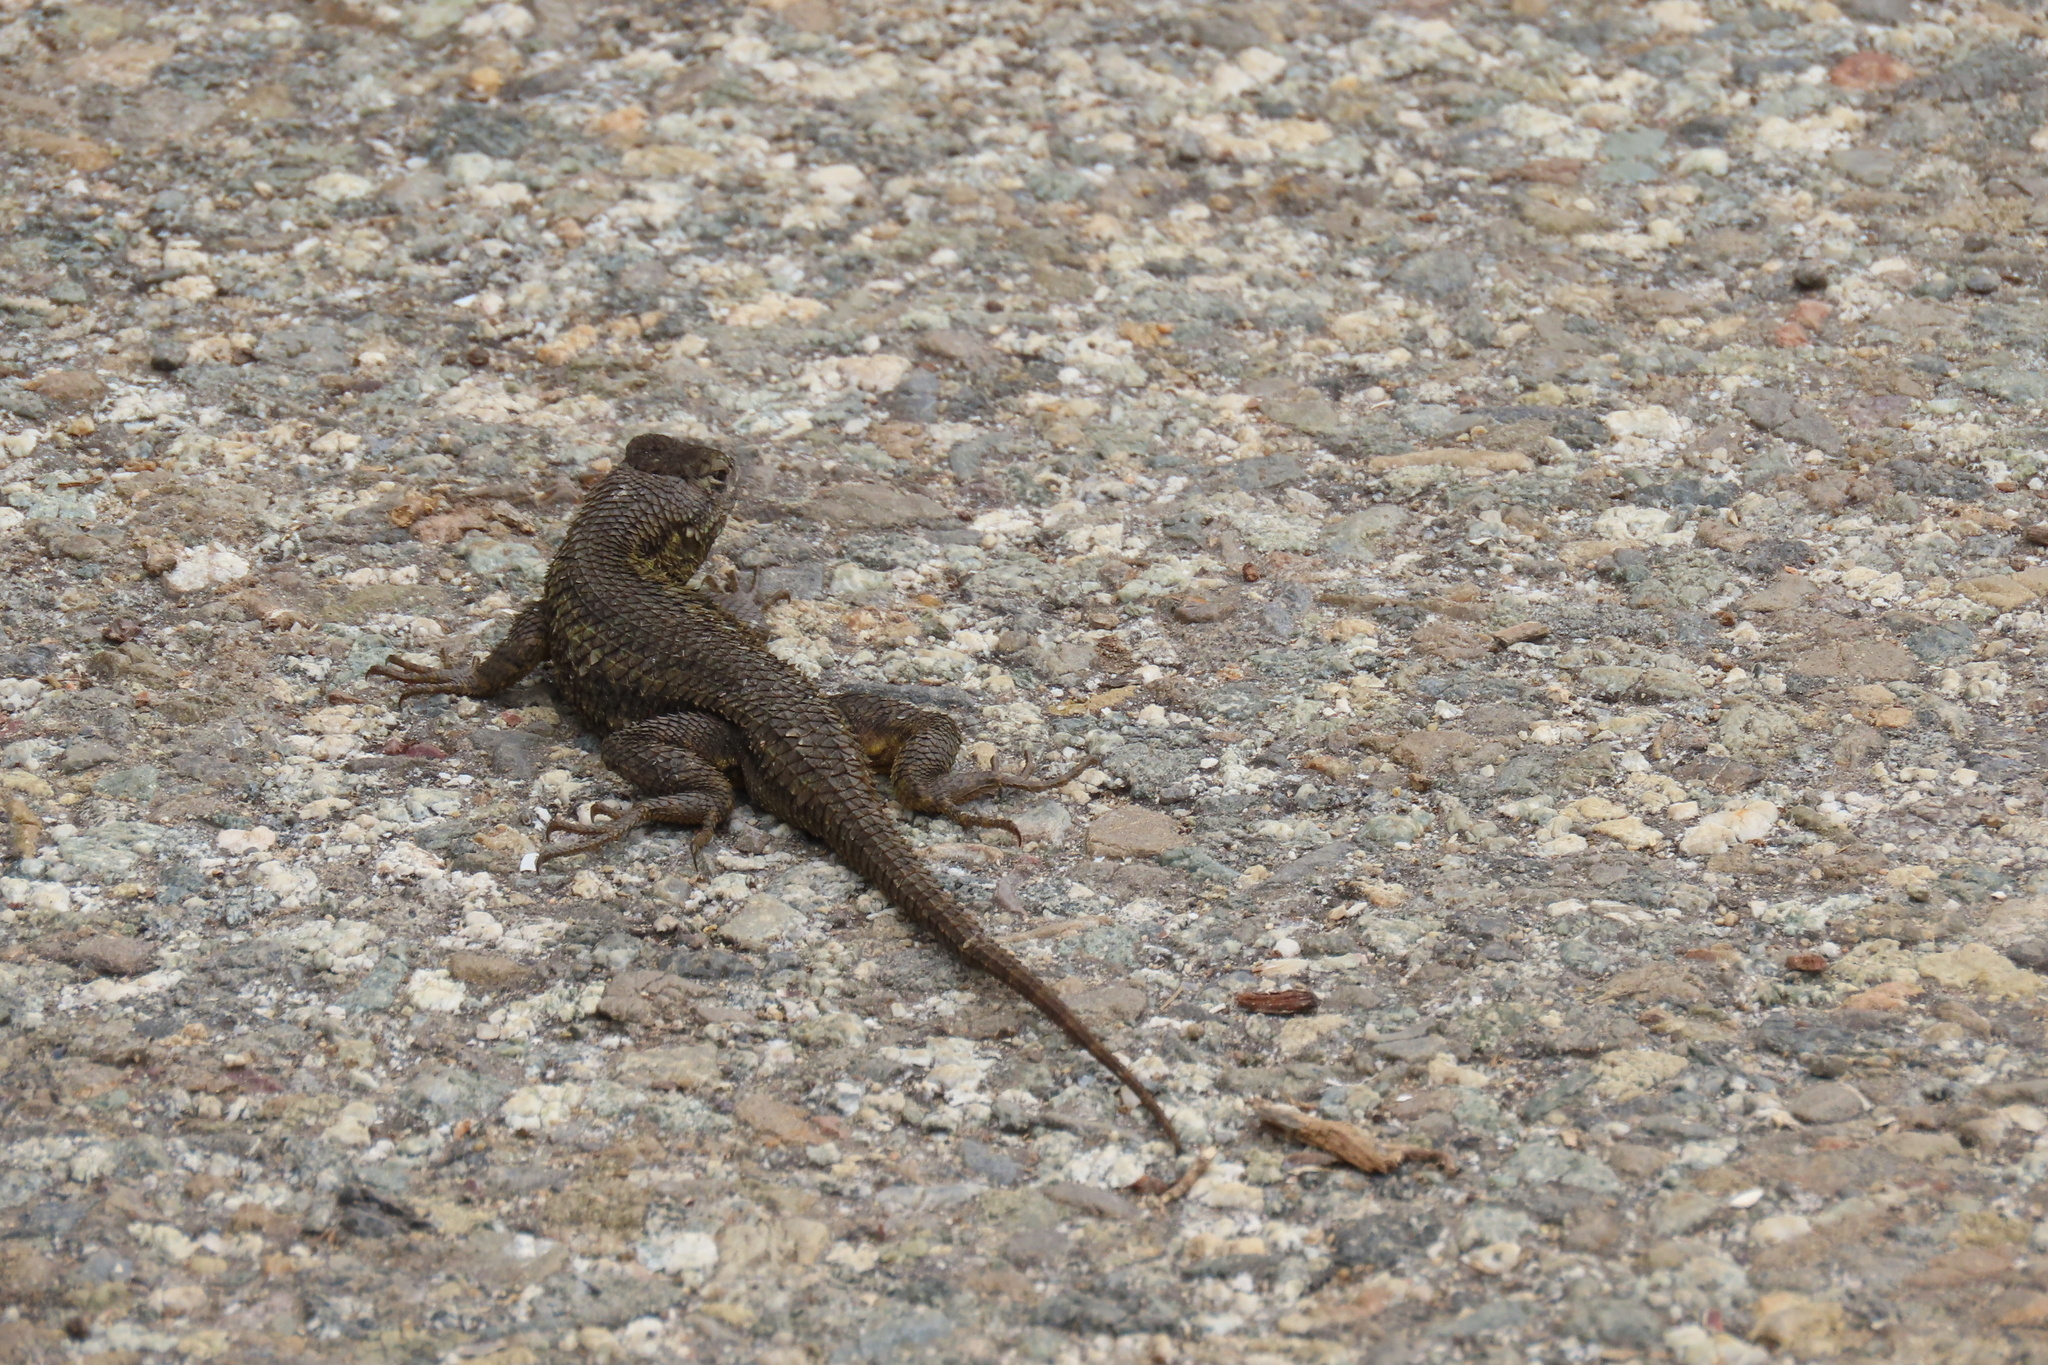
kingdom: Animalia
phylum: Chordata
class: Squamata
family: Phrynosomatidae
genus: Sceloporus
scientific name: Sceloporus occidentalis
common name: Western fence lizard
